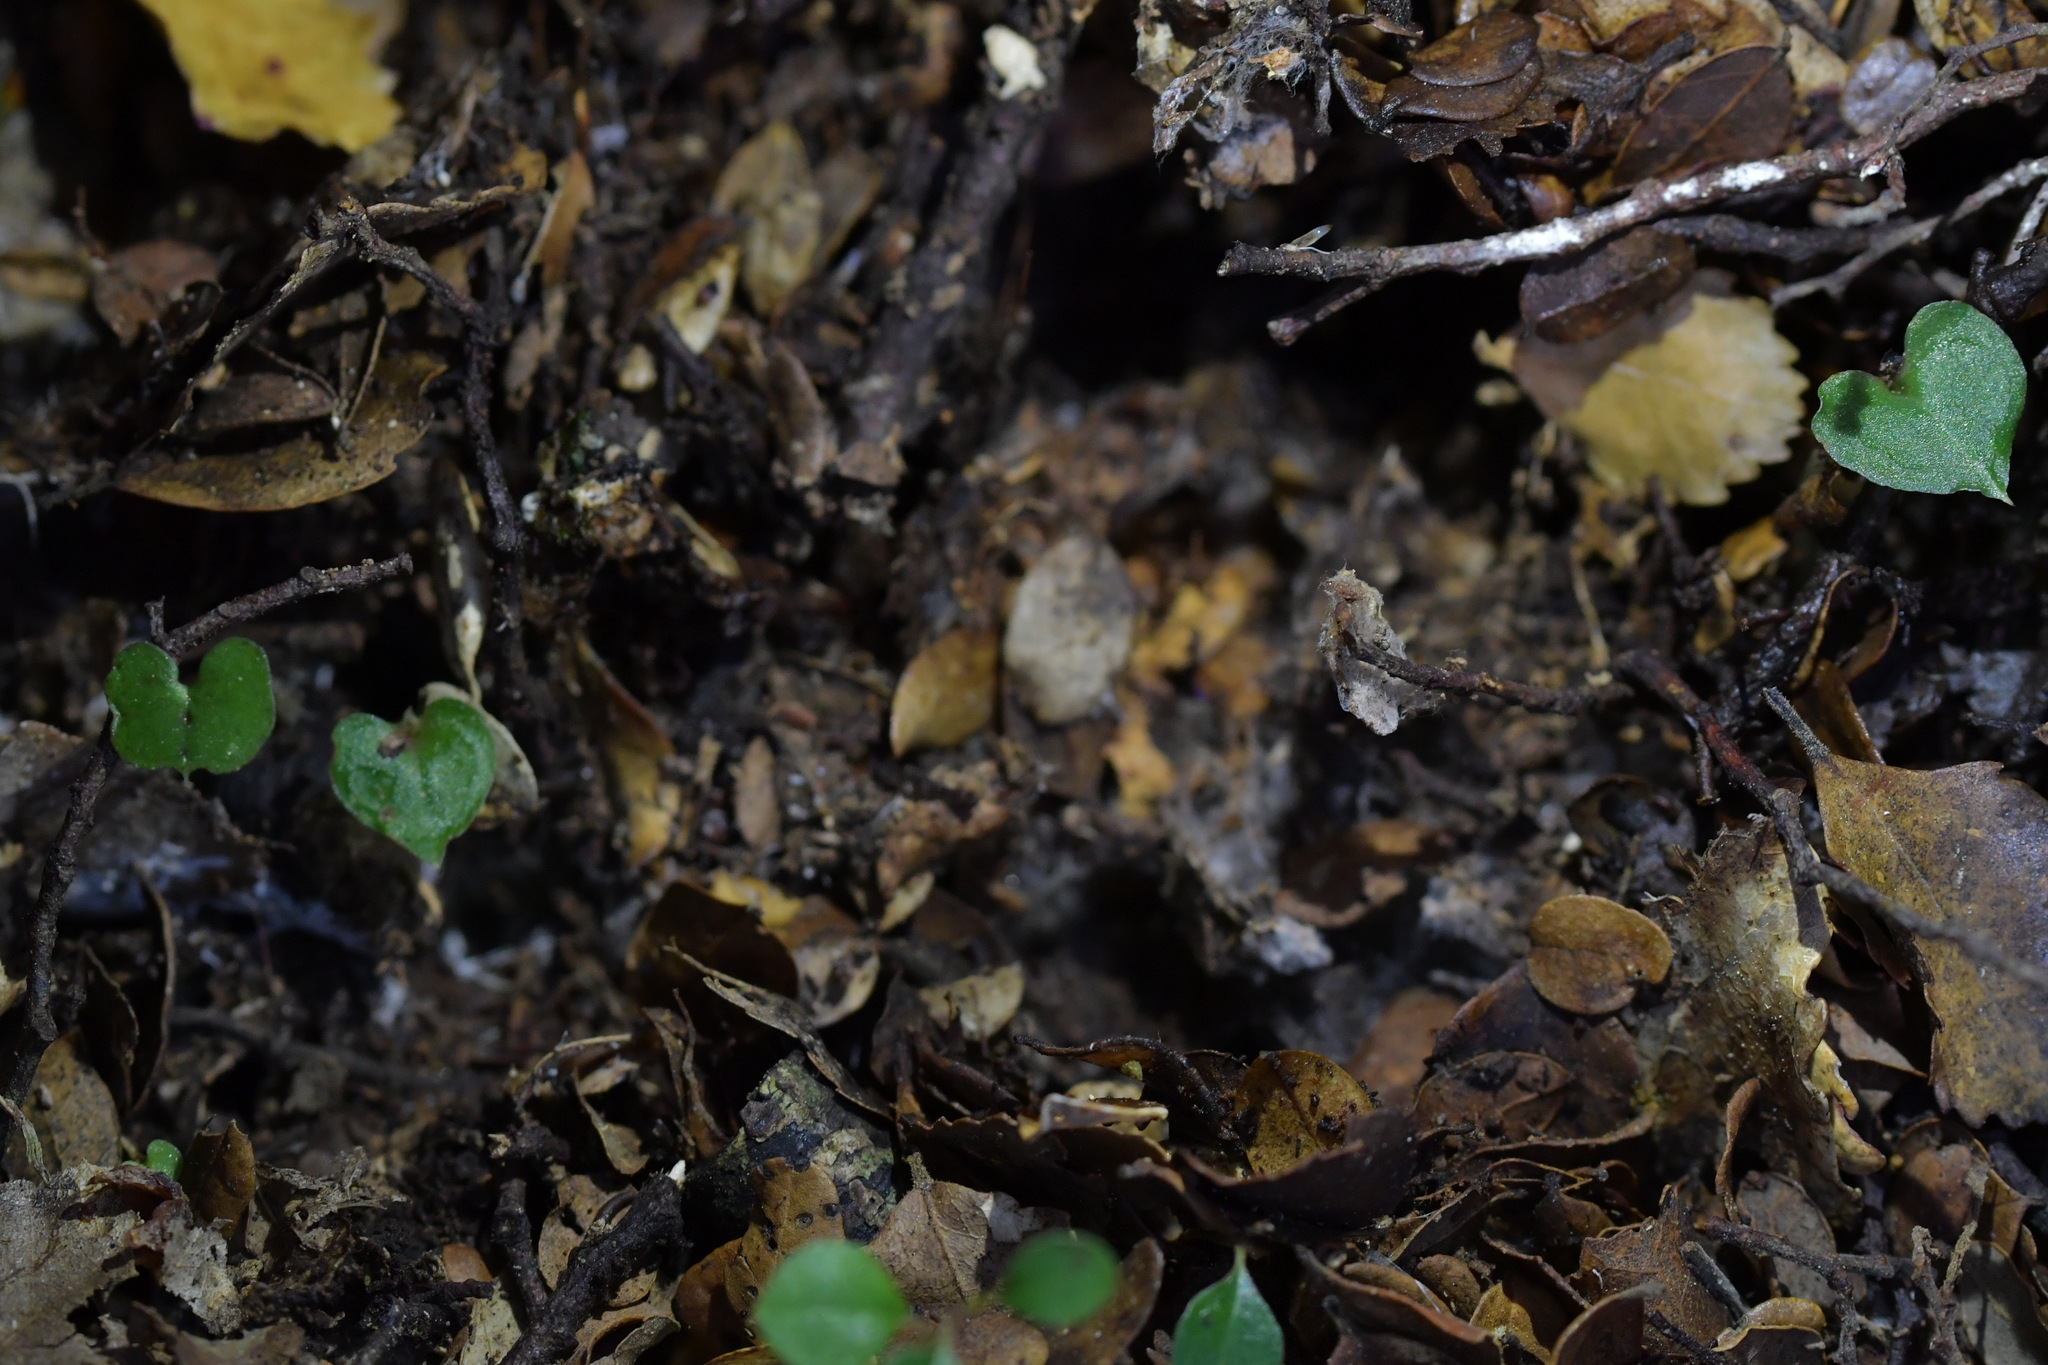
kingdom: Plantae
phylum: Tracheophyta
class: Liliopsida
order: Asparagales
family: Orchidaceae
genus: Corybas
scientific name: Corybas cheesemanii
